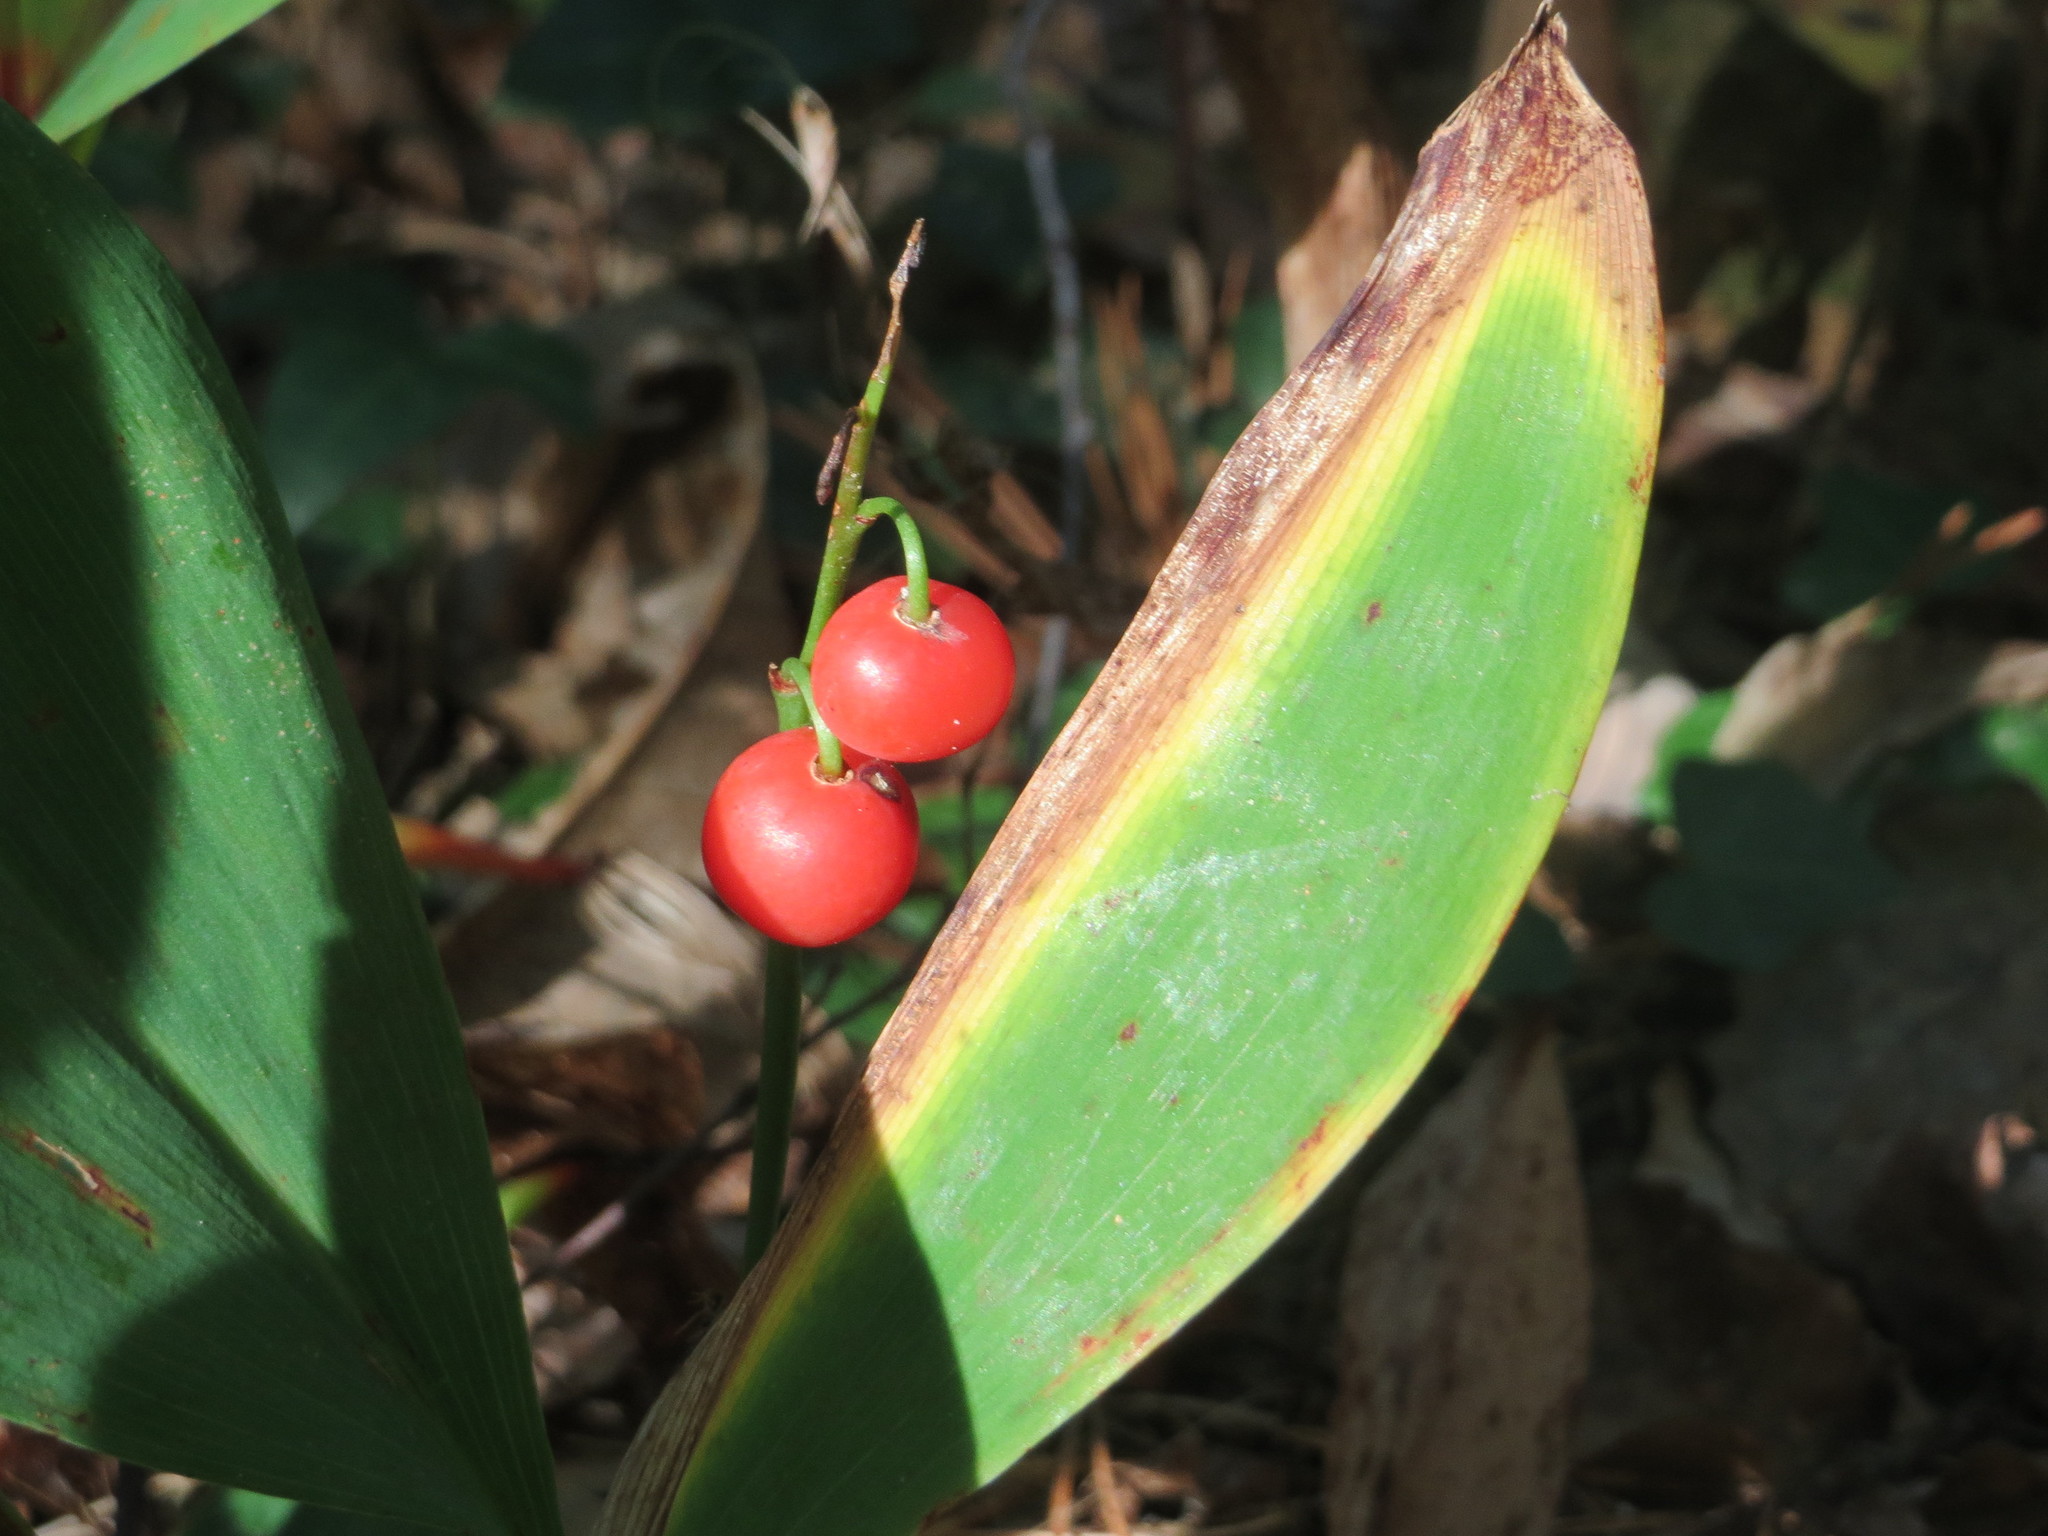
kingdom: Plantae
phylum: Tracheophyta
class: Liliopsida
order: Asparagales
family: Asparagaceae
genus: Convallaria
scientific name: Convallaria majalis
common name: Lily-of-the-valley
